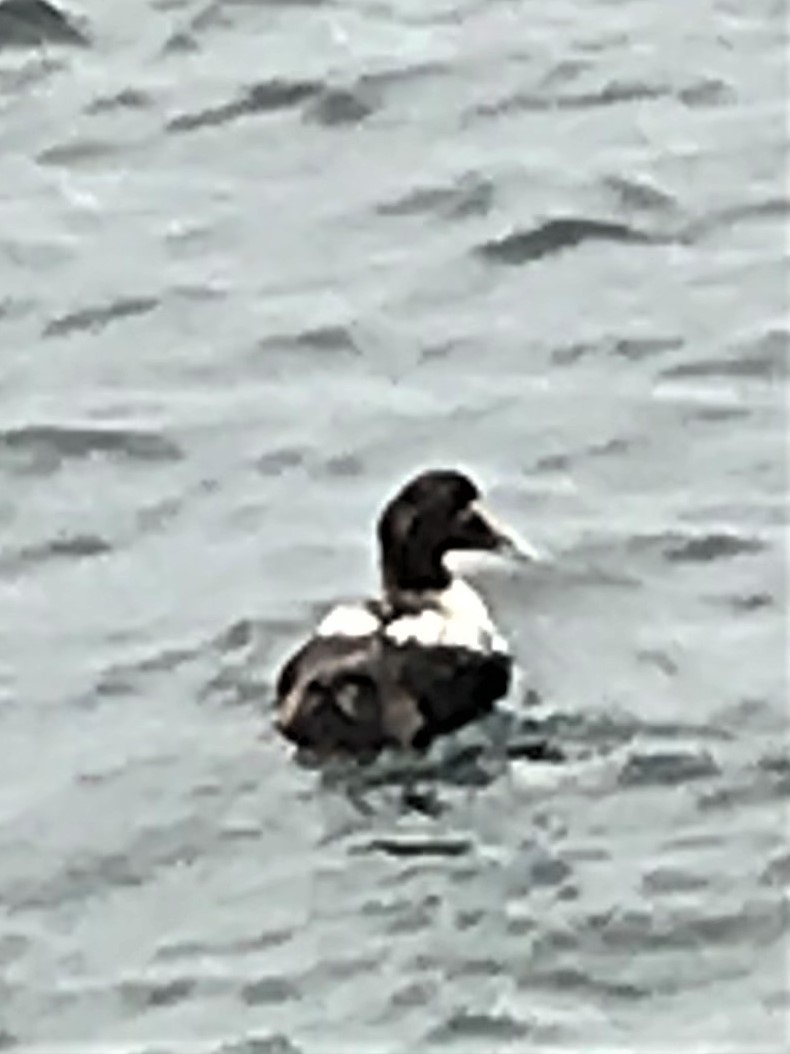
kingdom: Animalia
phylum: Chordata
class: Aves
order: Anseriformes
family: Anatidae
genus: Somateria
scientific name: Somateria mollissima
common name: Common eider
